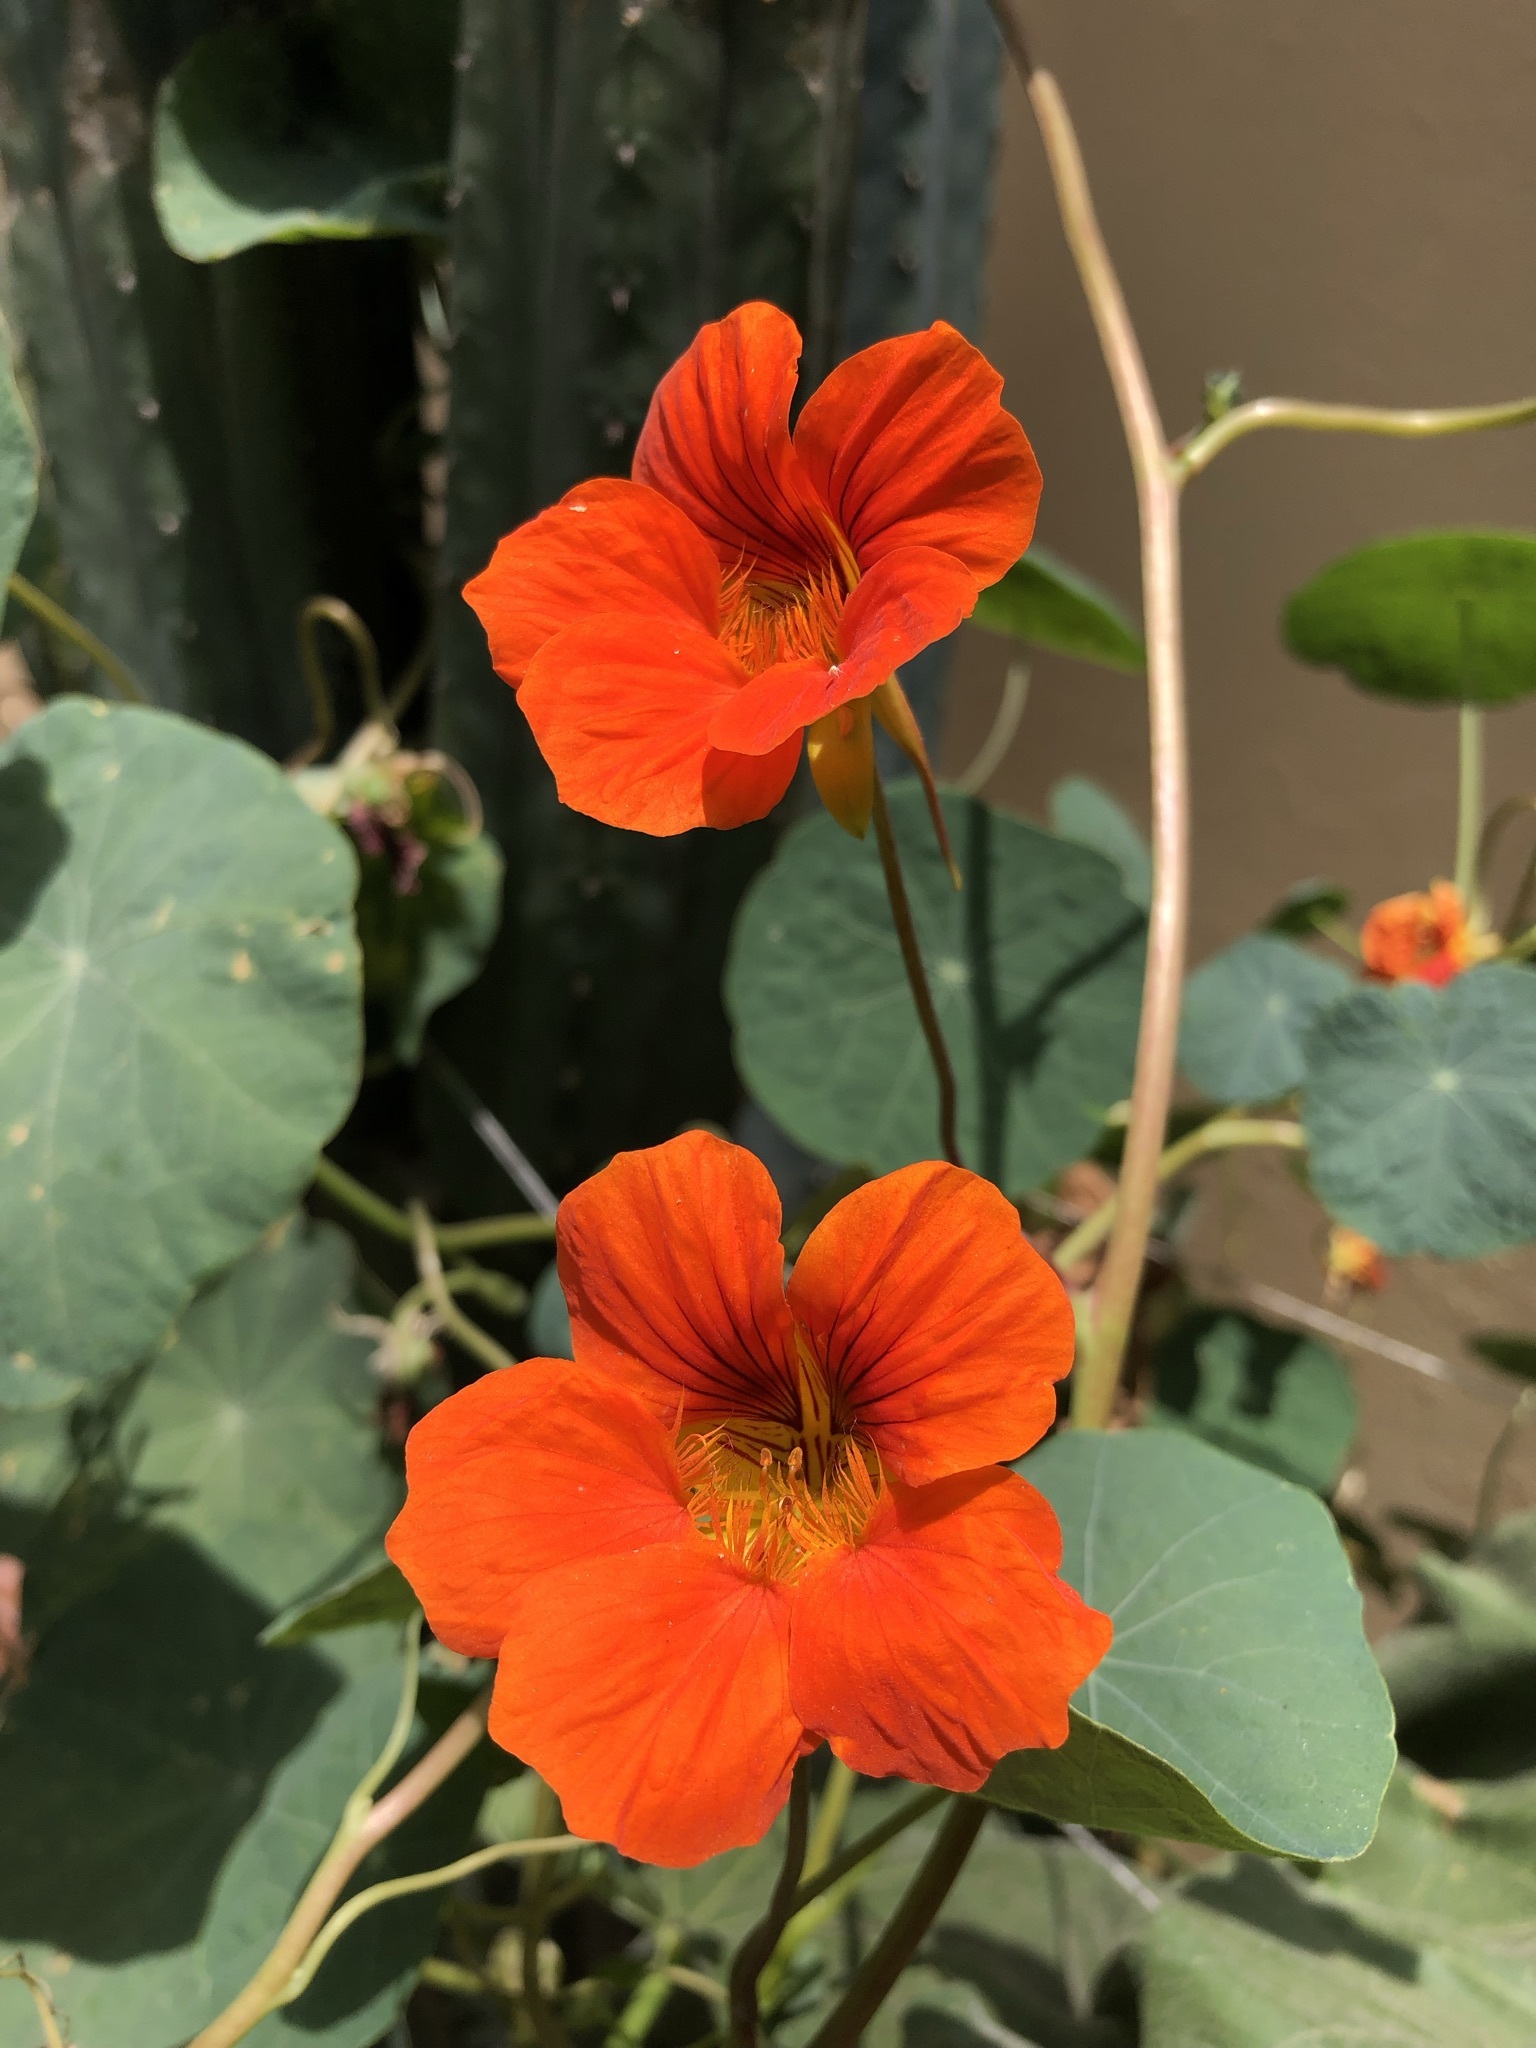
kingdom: Plantae
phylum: Tracheophyta
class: Magnoliopsida
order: Brassicales
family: Tropaeolaceae
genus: Tropaeolum
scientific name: Tropaeolum majus
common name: Nasturtium
